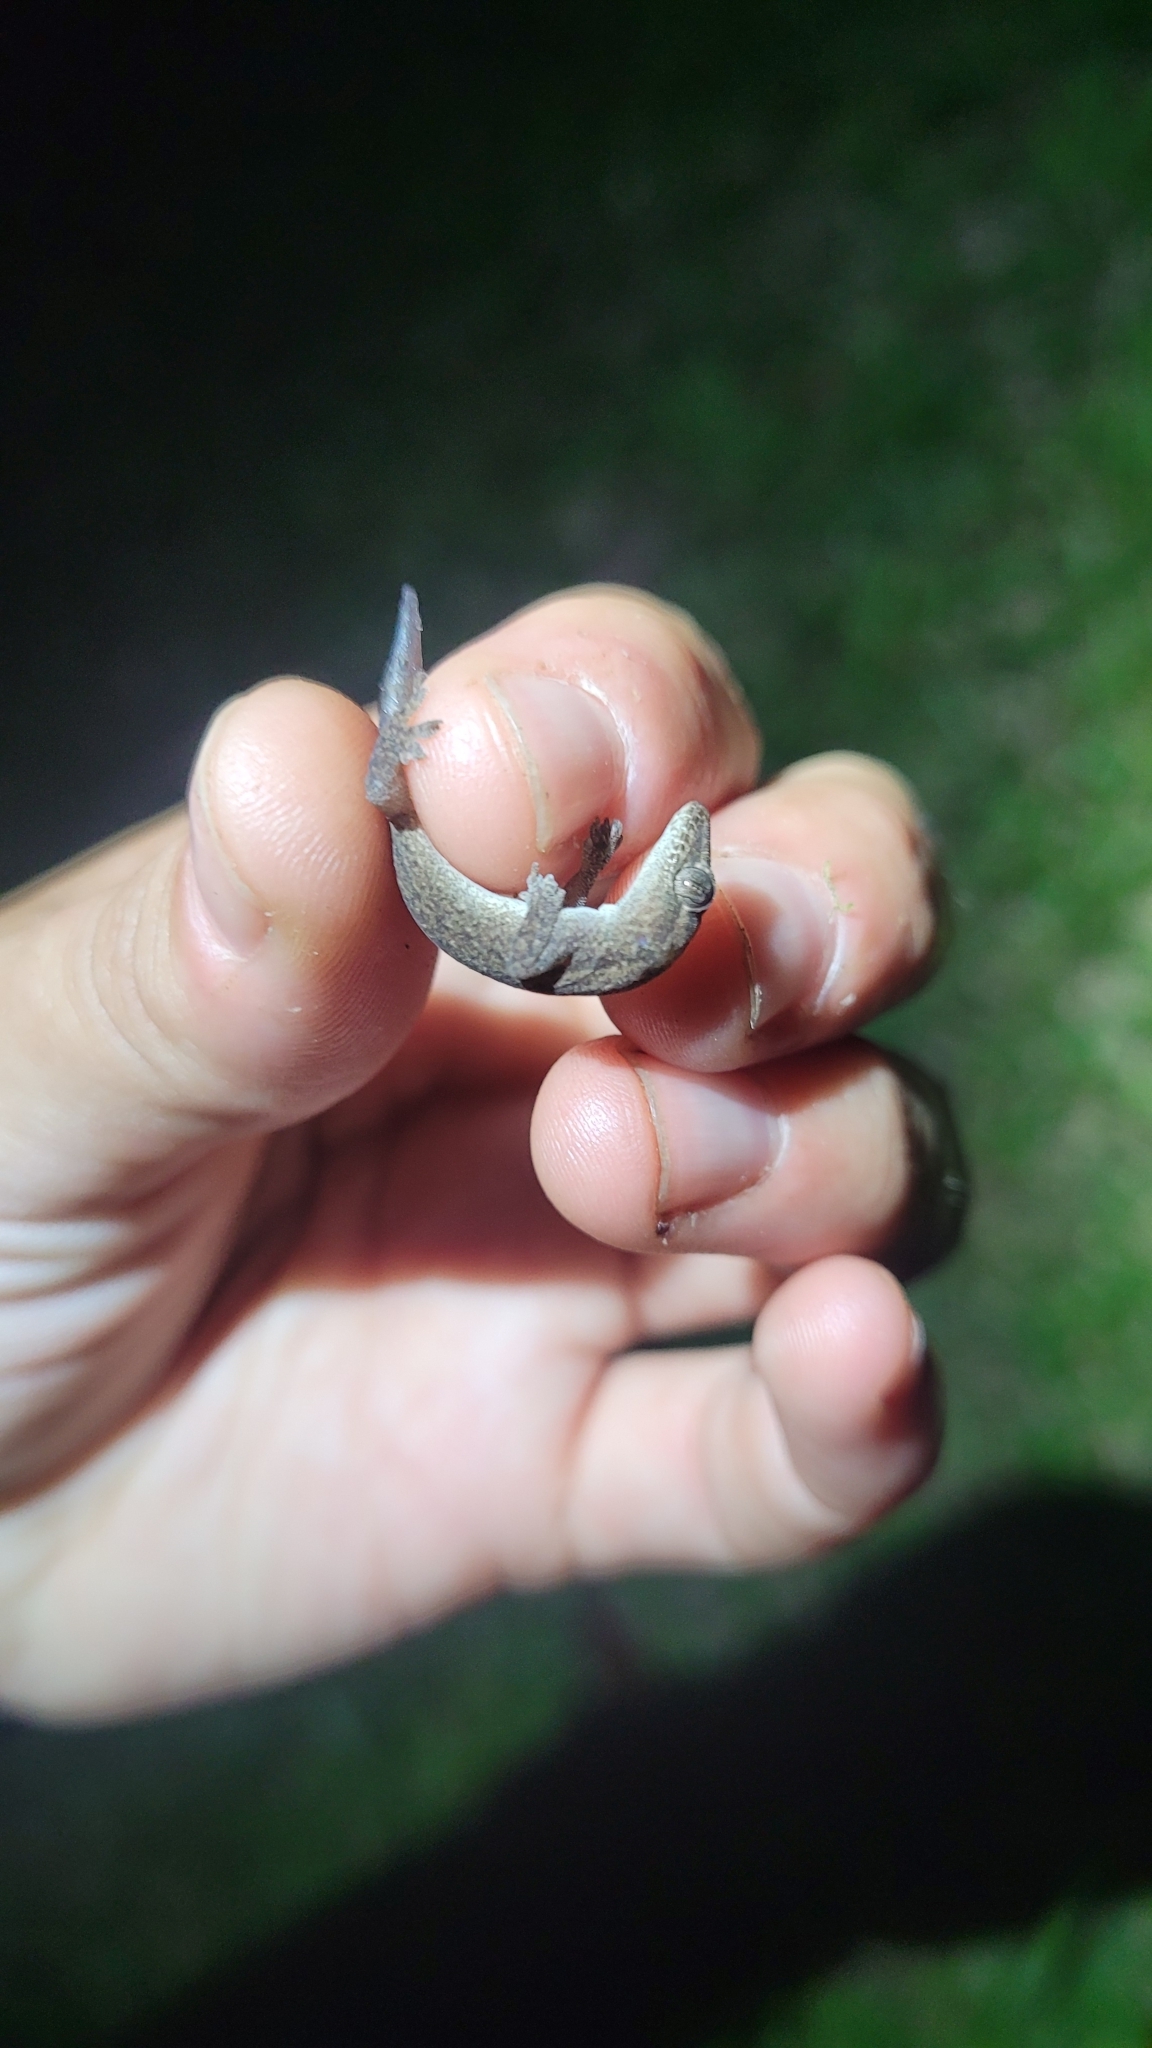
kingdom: Animalia
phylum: Chordata
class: Squamata
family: Gekkonidae
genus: Hemidactylus
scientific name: Hemidactylus frenatus
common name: Common house gecko
